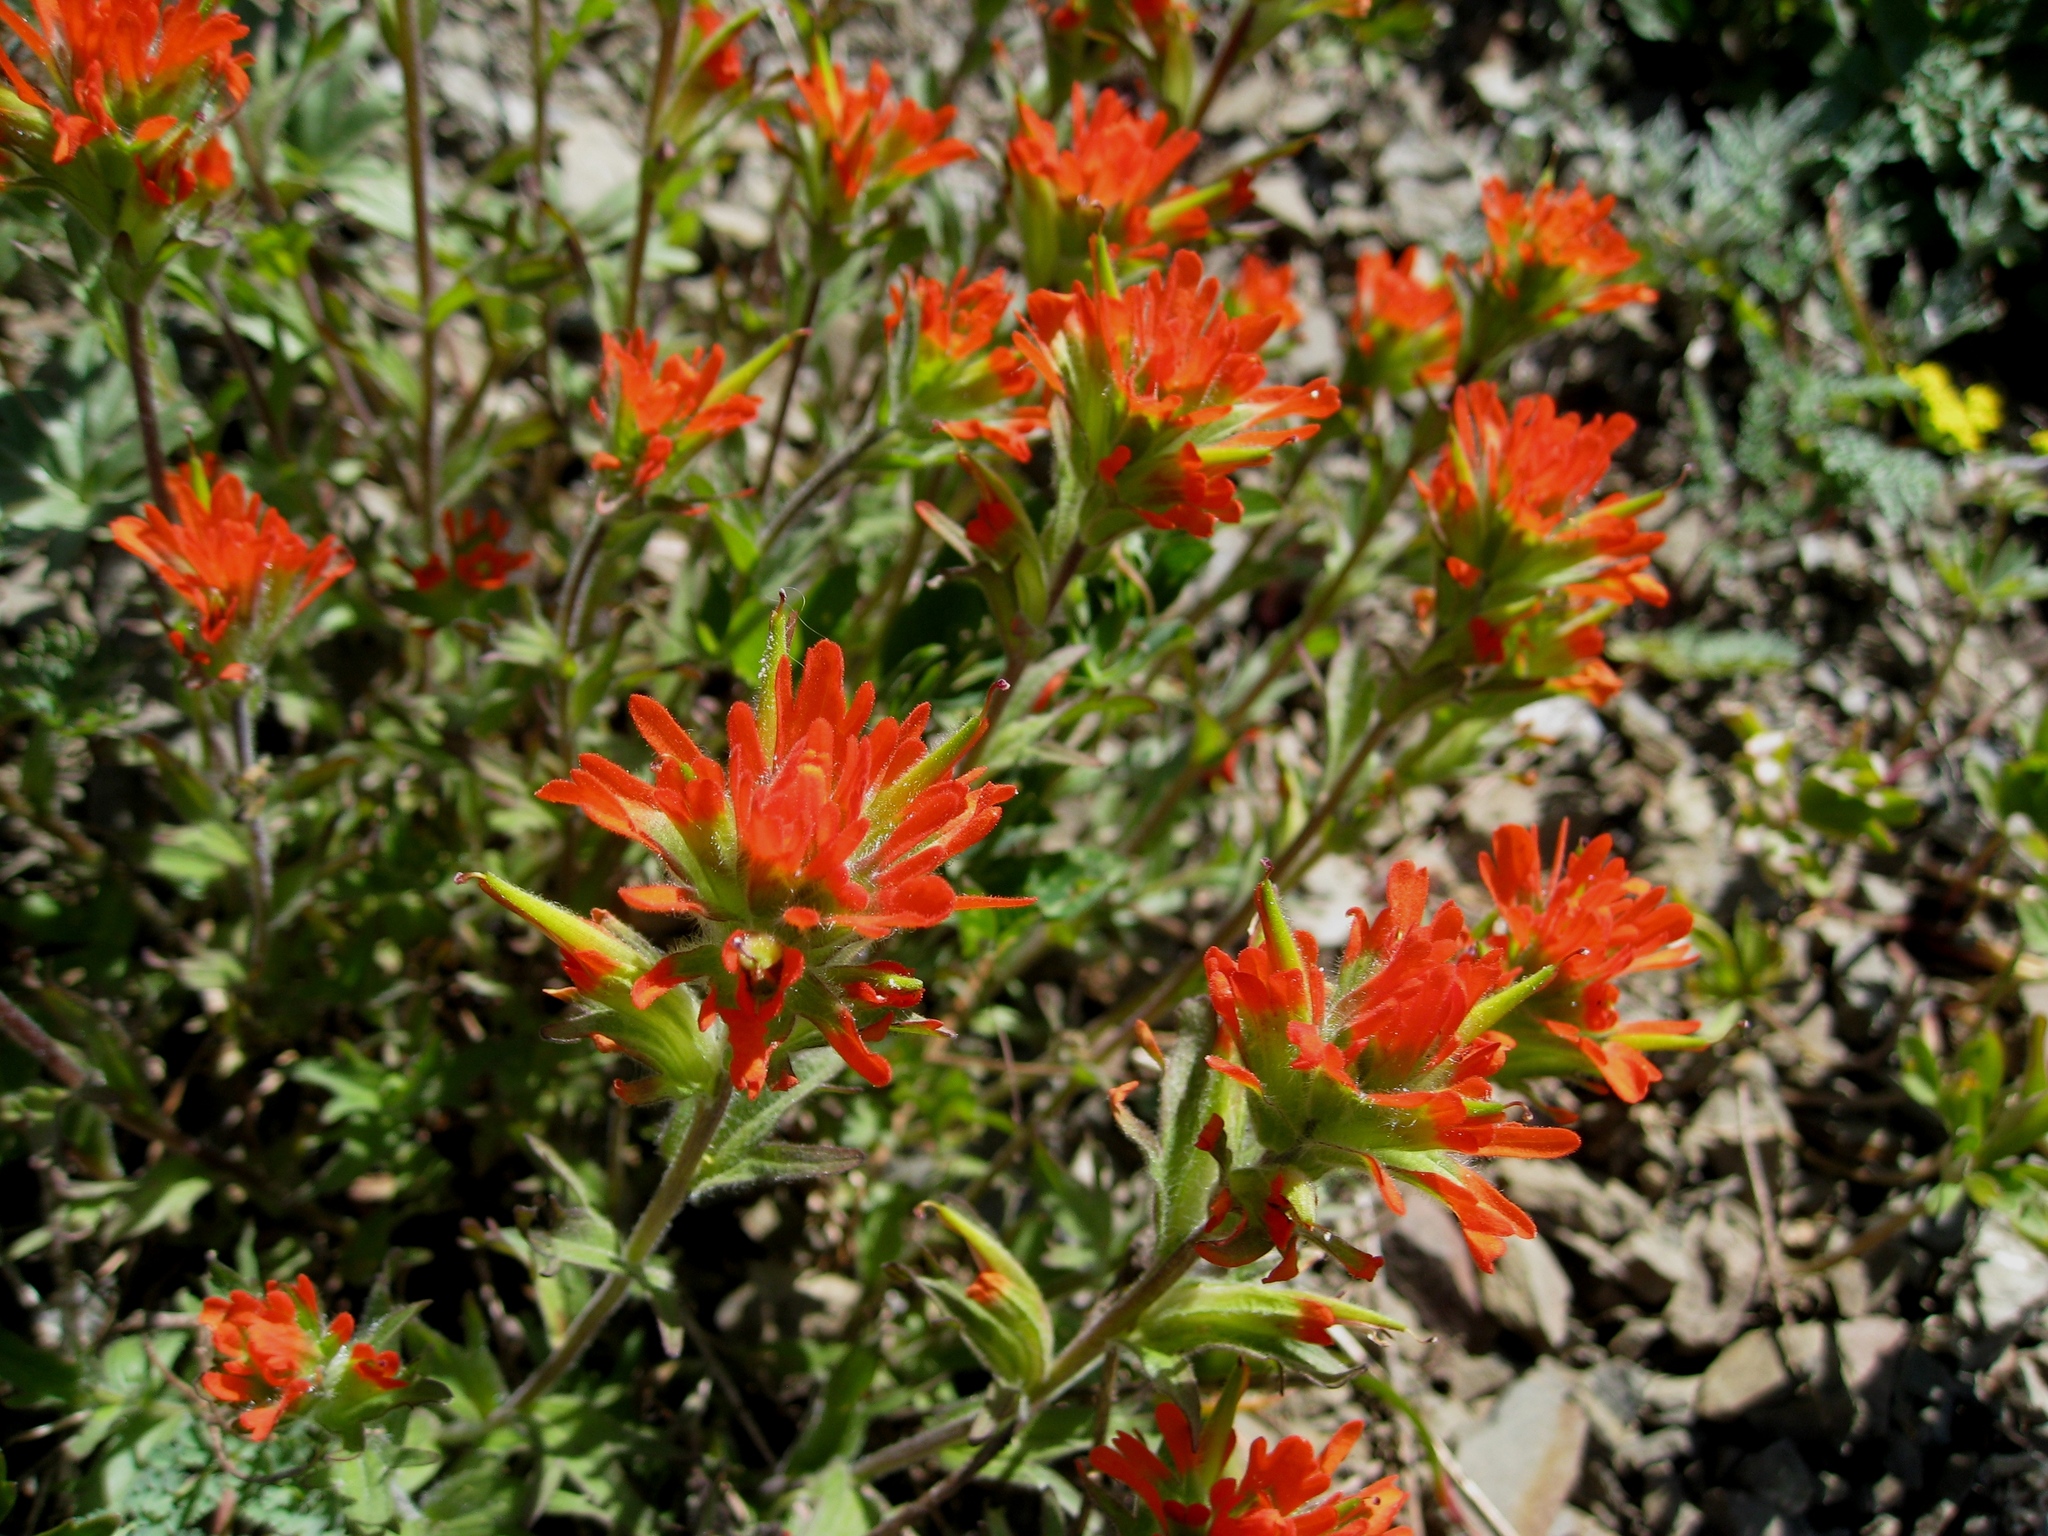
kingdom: Plantae
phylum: Tracheophyta
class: Magnoliopsida
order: Lamiales
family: Orobanchaceae
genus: Castilleja
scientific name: Castilleja miniata
